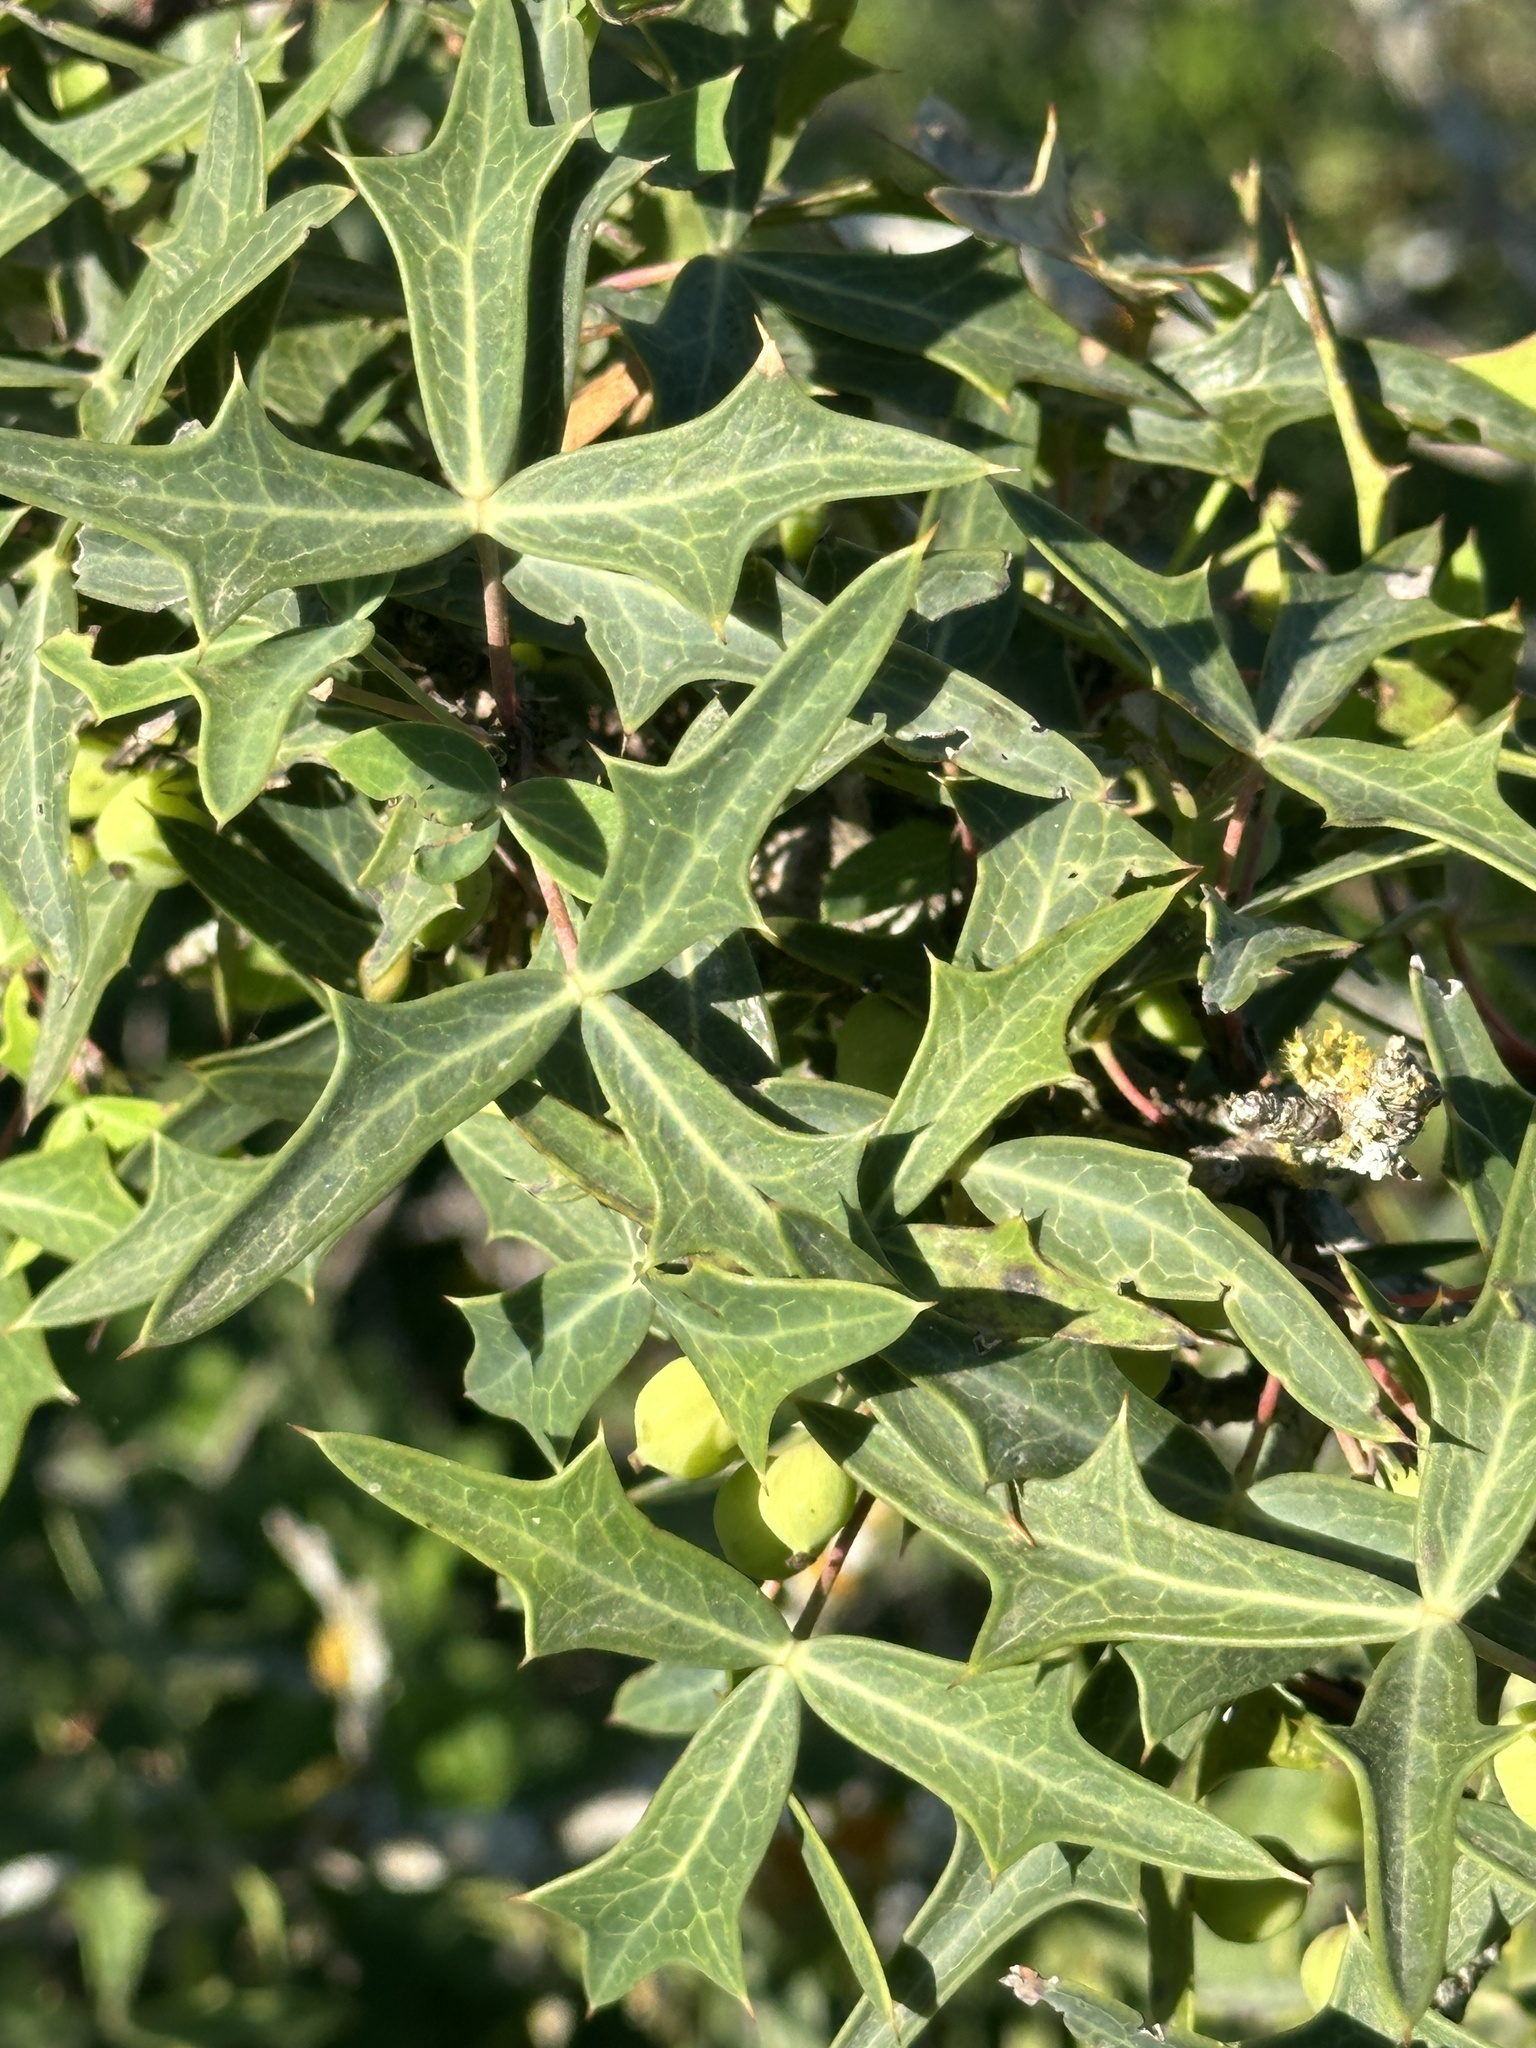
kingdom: Plantae
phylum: Tracheophyta
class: Magnoliopsida
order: Ranunculales
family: Berberidaceae
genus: Alloberberis
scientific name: Alloberberis trifoliolata
